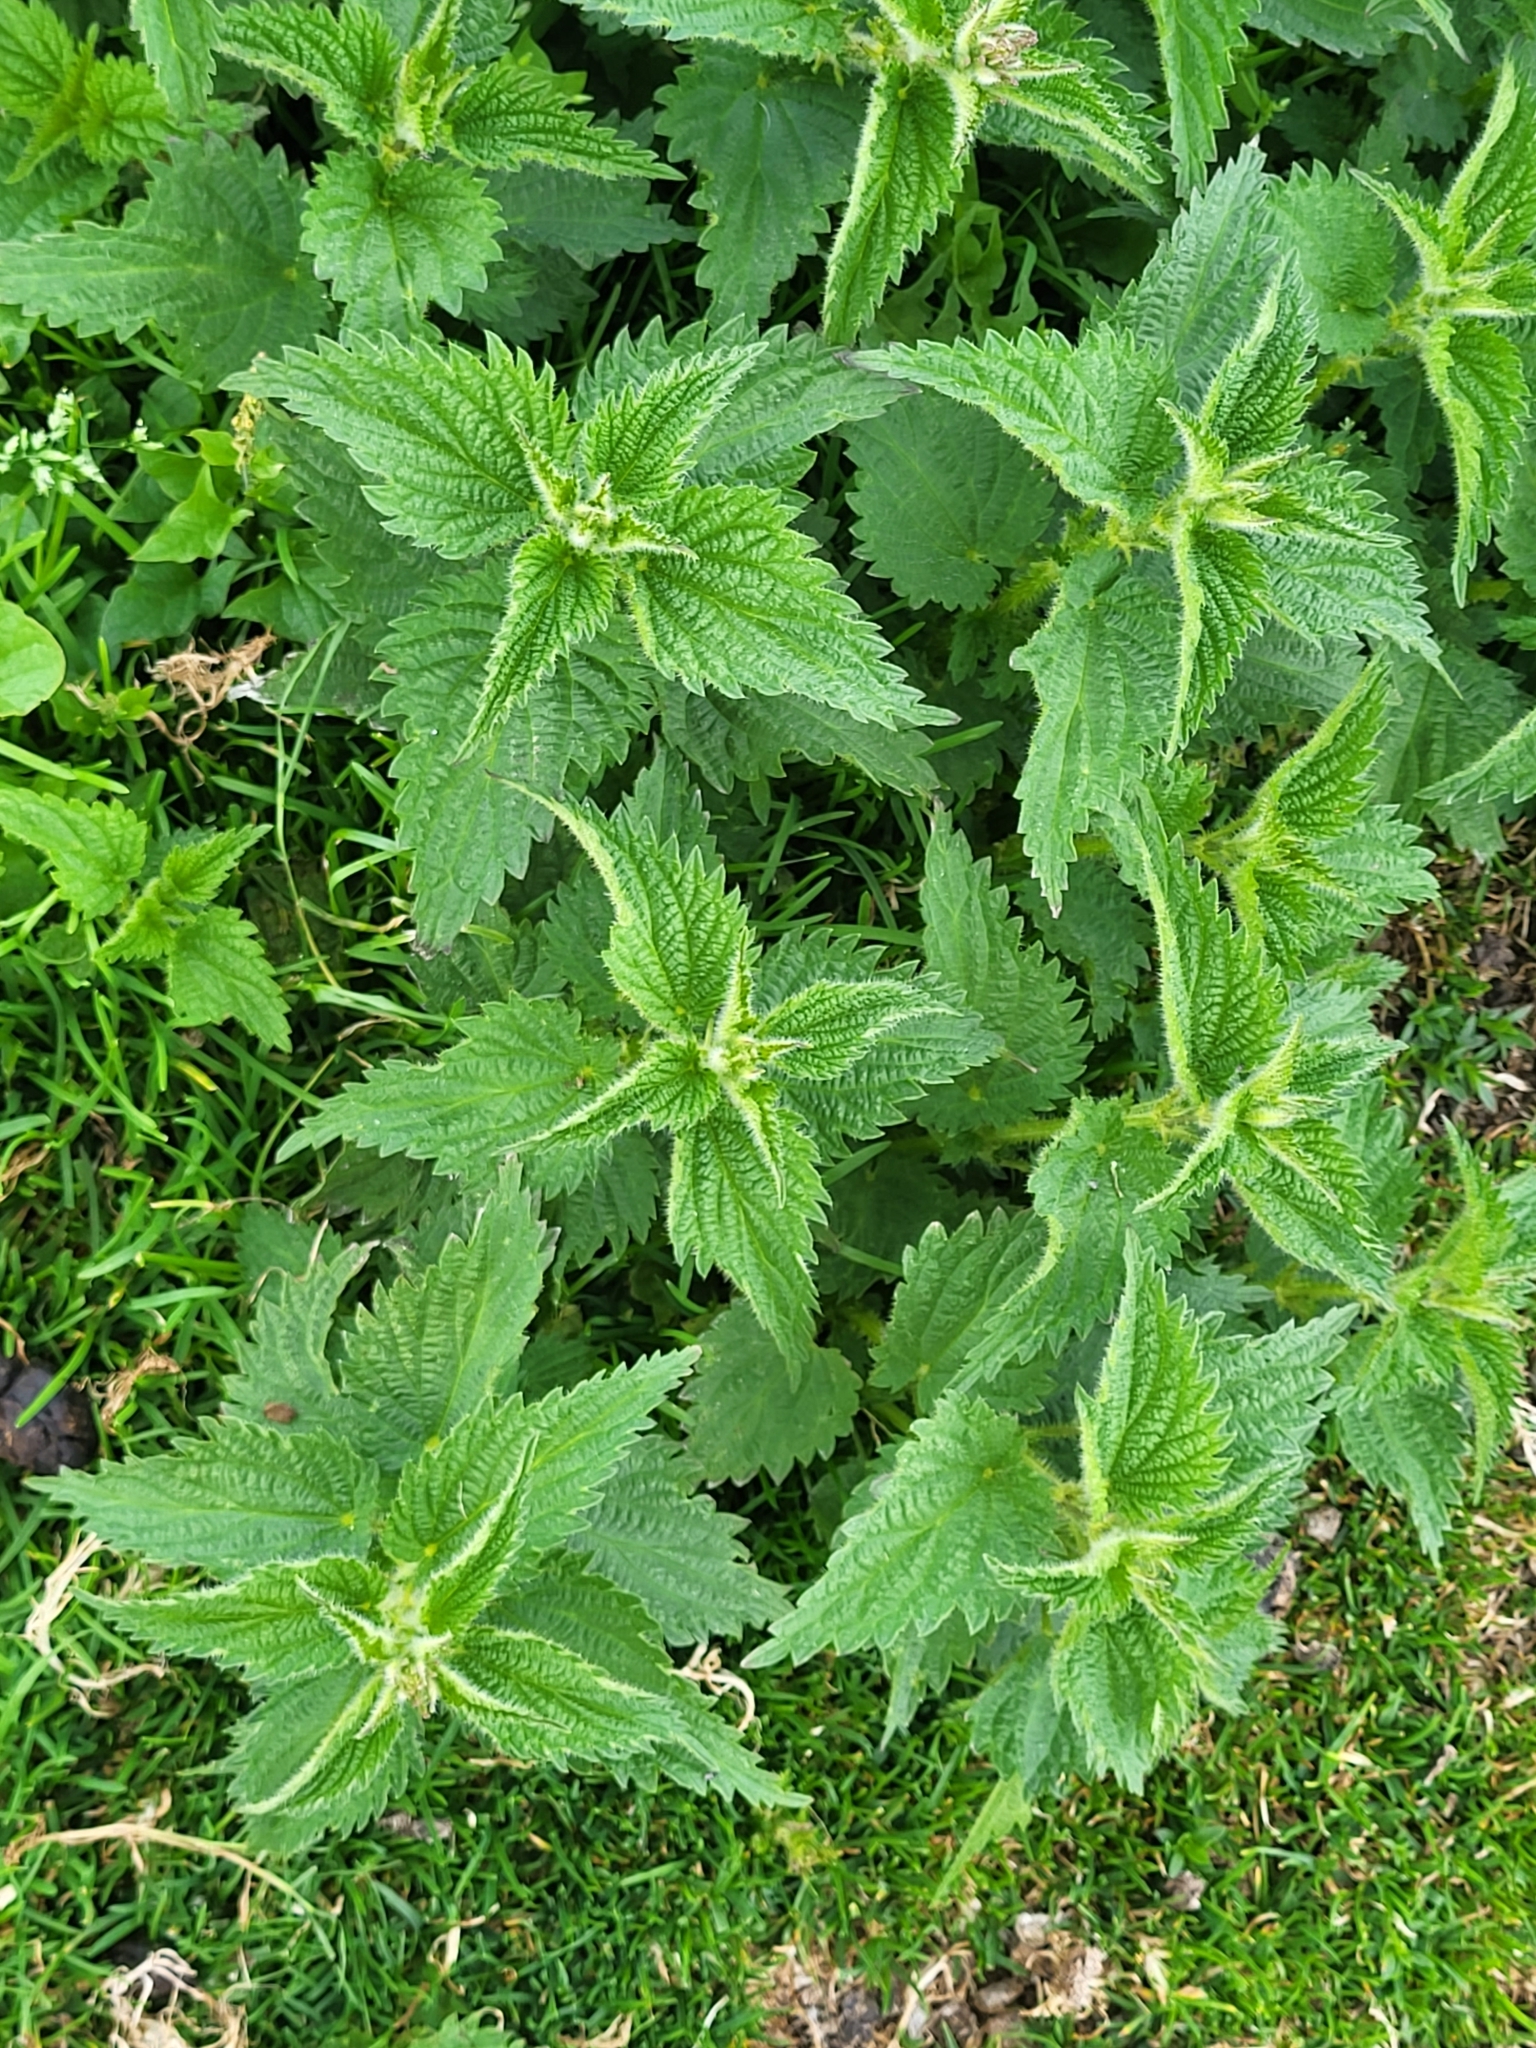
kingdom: Plantae
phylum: Tracheophyta
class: Magnoliopsida
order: Rosales
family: Urticaceae
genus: Urtica
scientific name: Urtica dioica
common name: Common nettle
